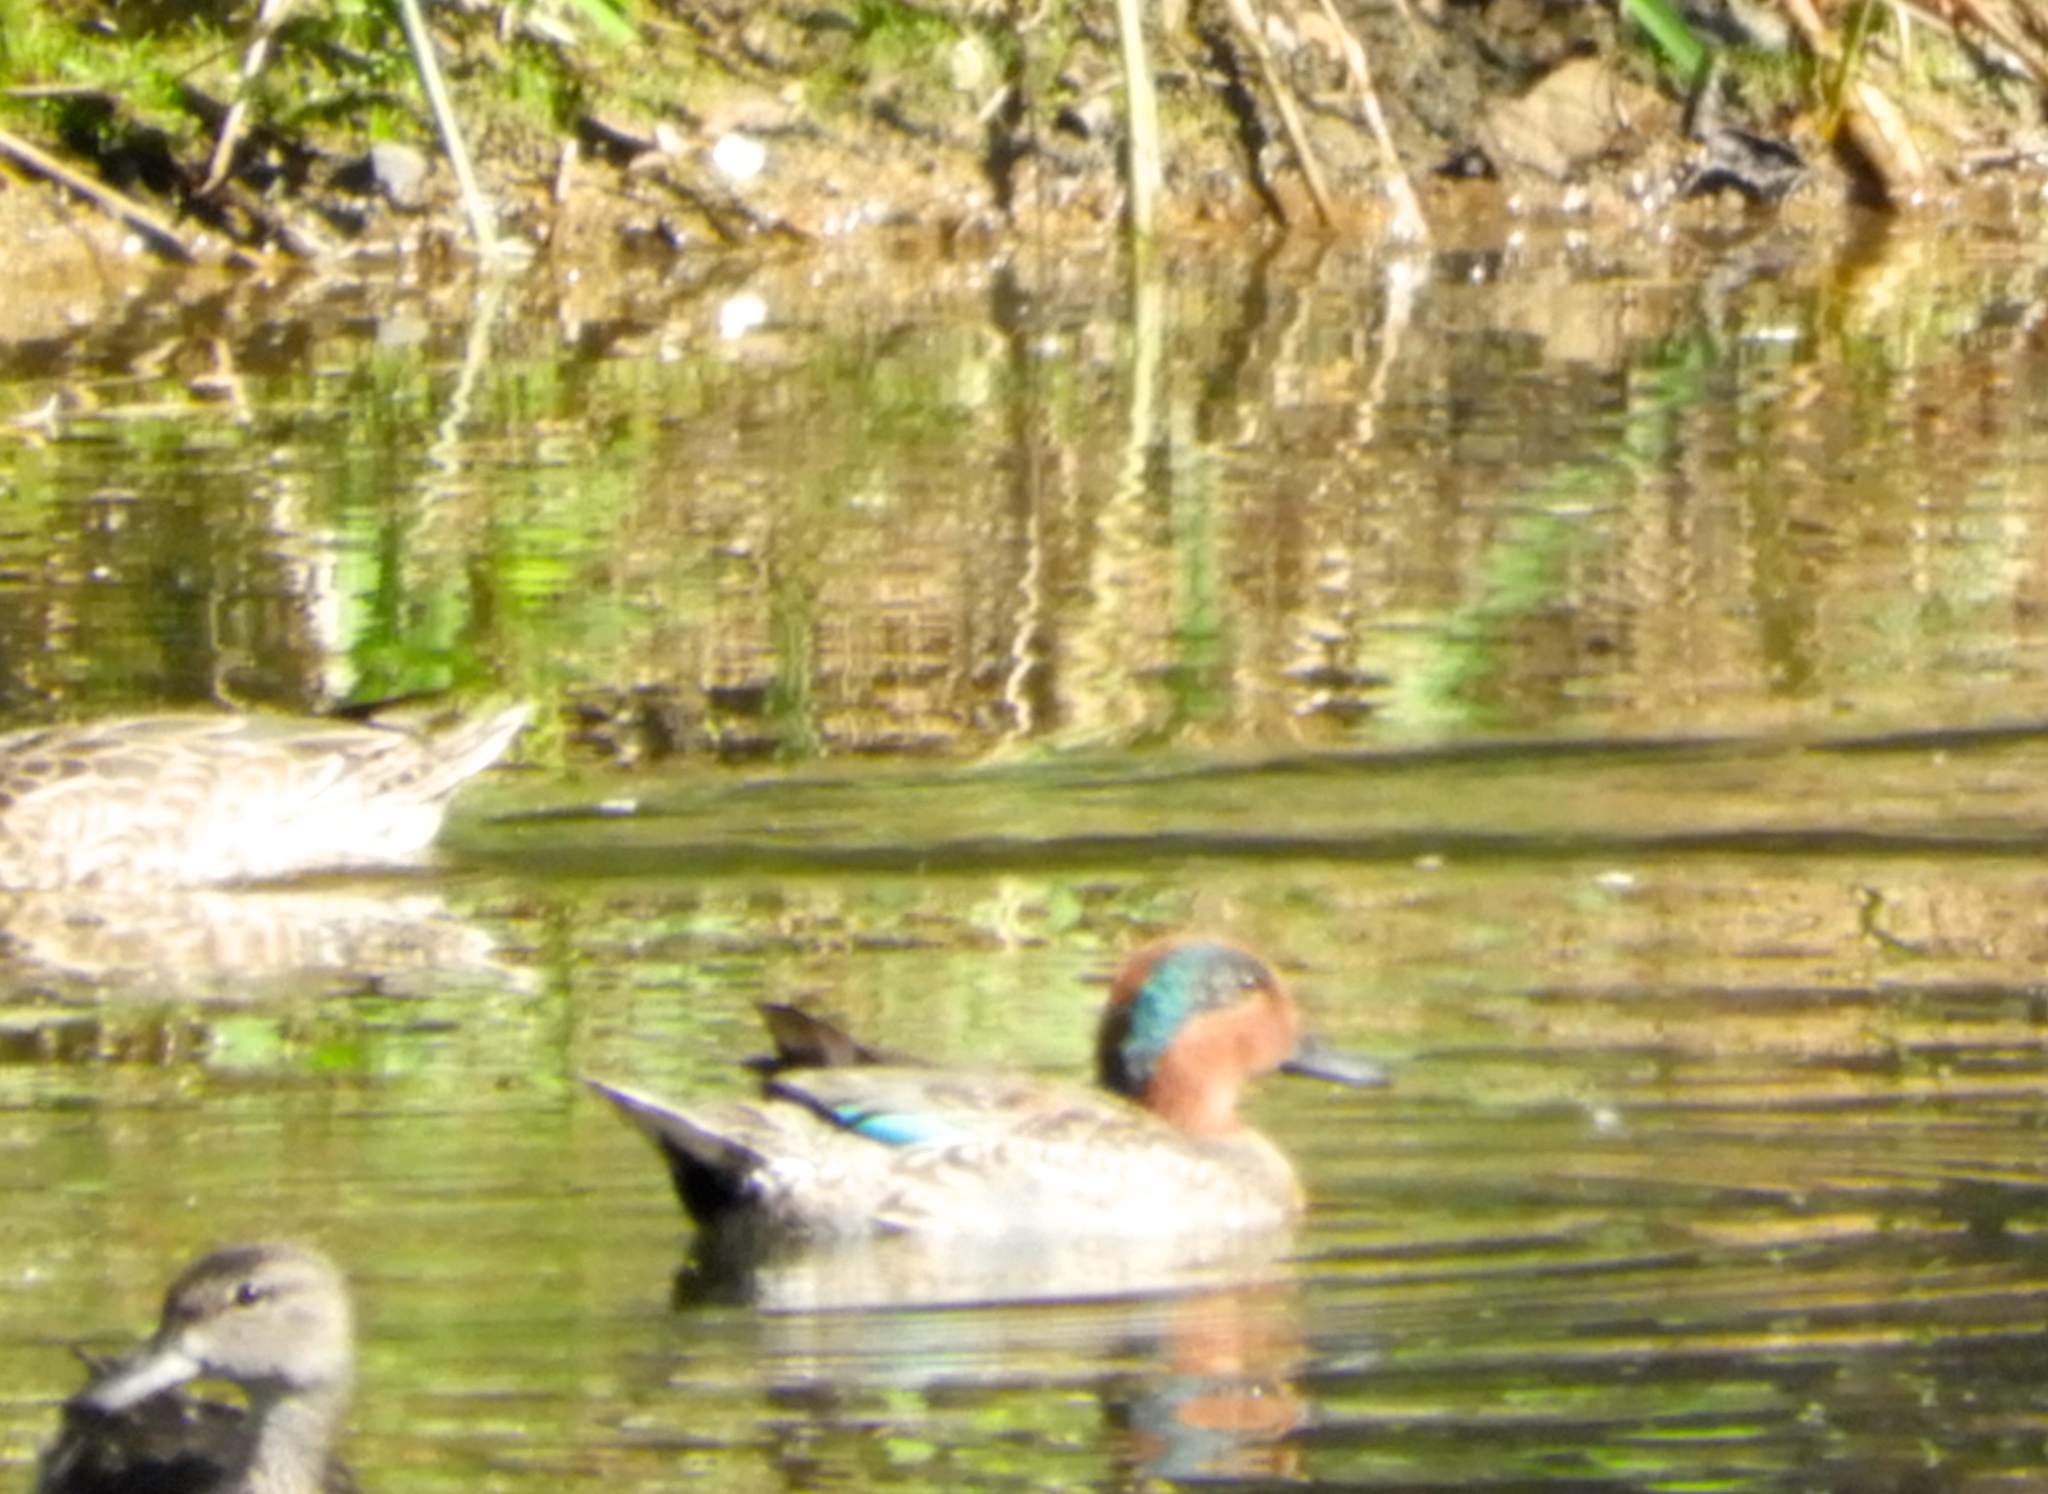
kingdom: Animalia
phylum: Chordata
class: Aves
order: Anseriformes
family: Anatidae
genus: Anas
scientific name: Anas crecca
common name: Eurasian teal
